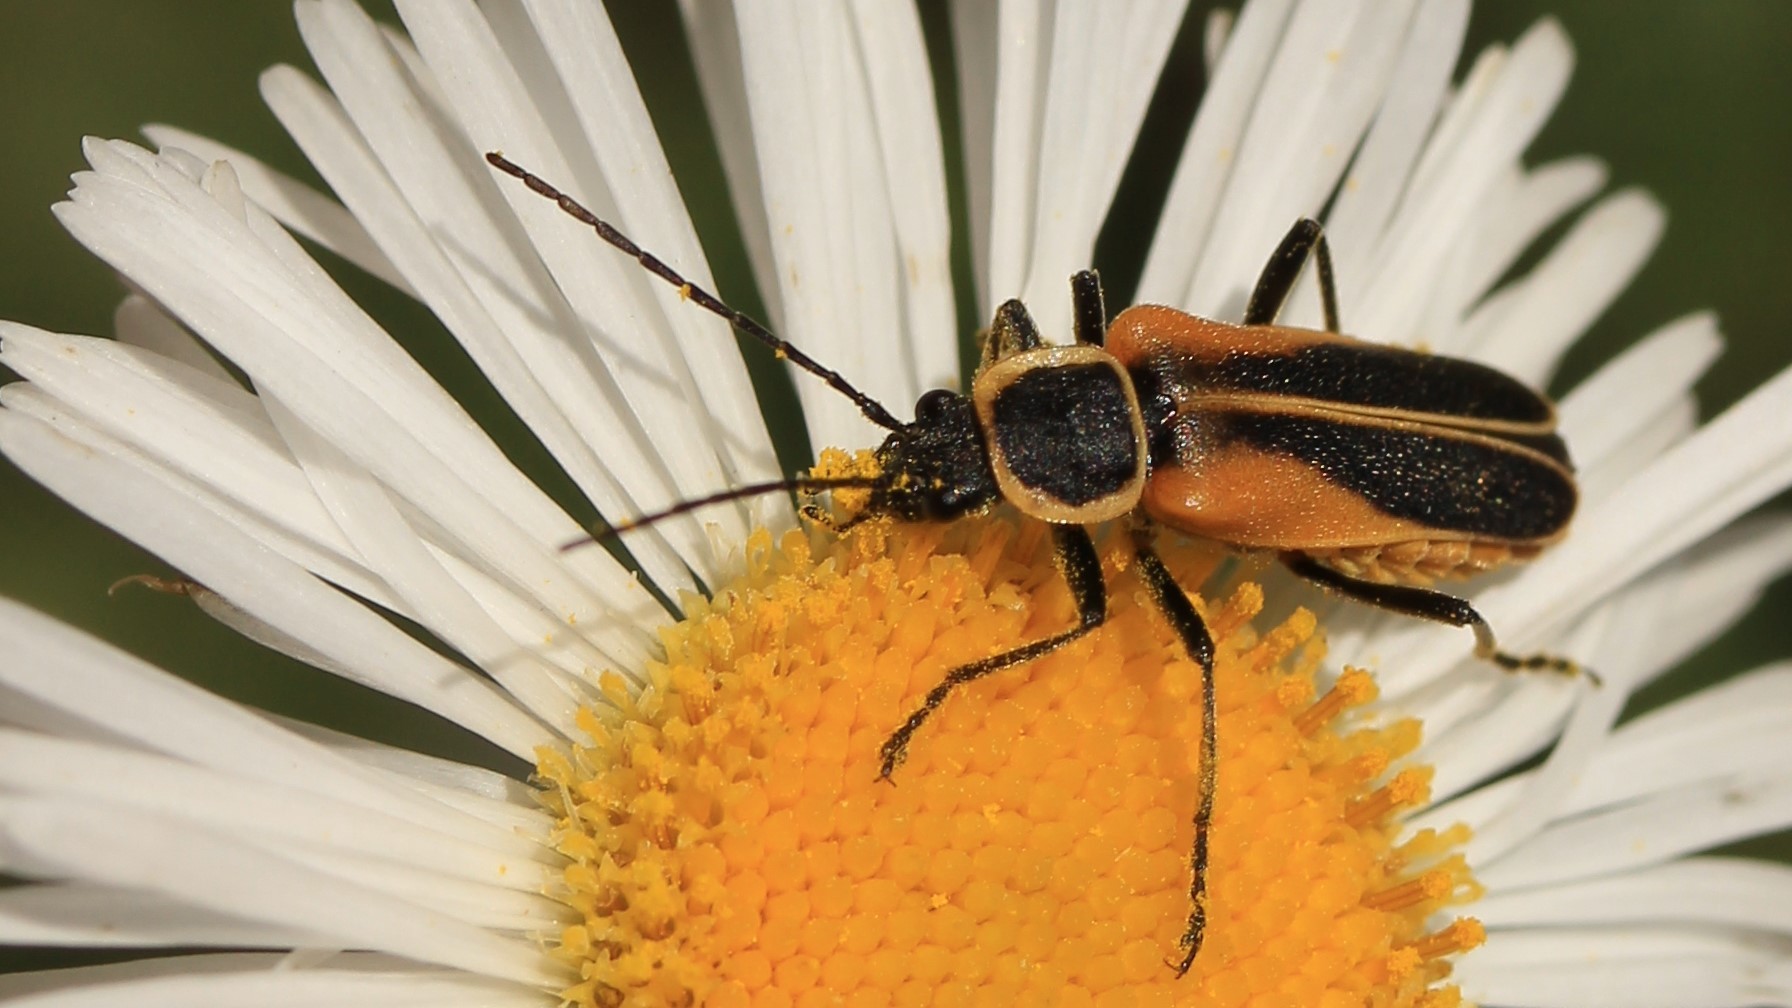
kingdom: Animalia
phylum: Arthropoda
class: Insecta
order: Coleoptera
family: Cantharidae
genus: Chauliognathus
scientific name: Chauliognathus opacus
